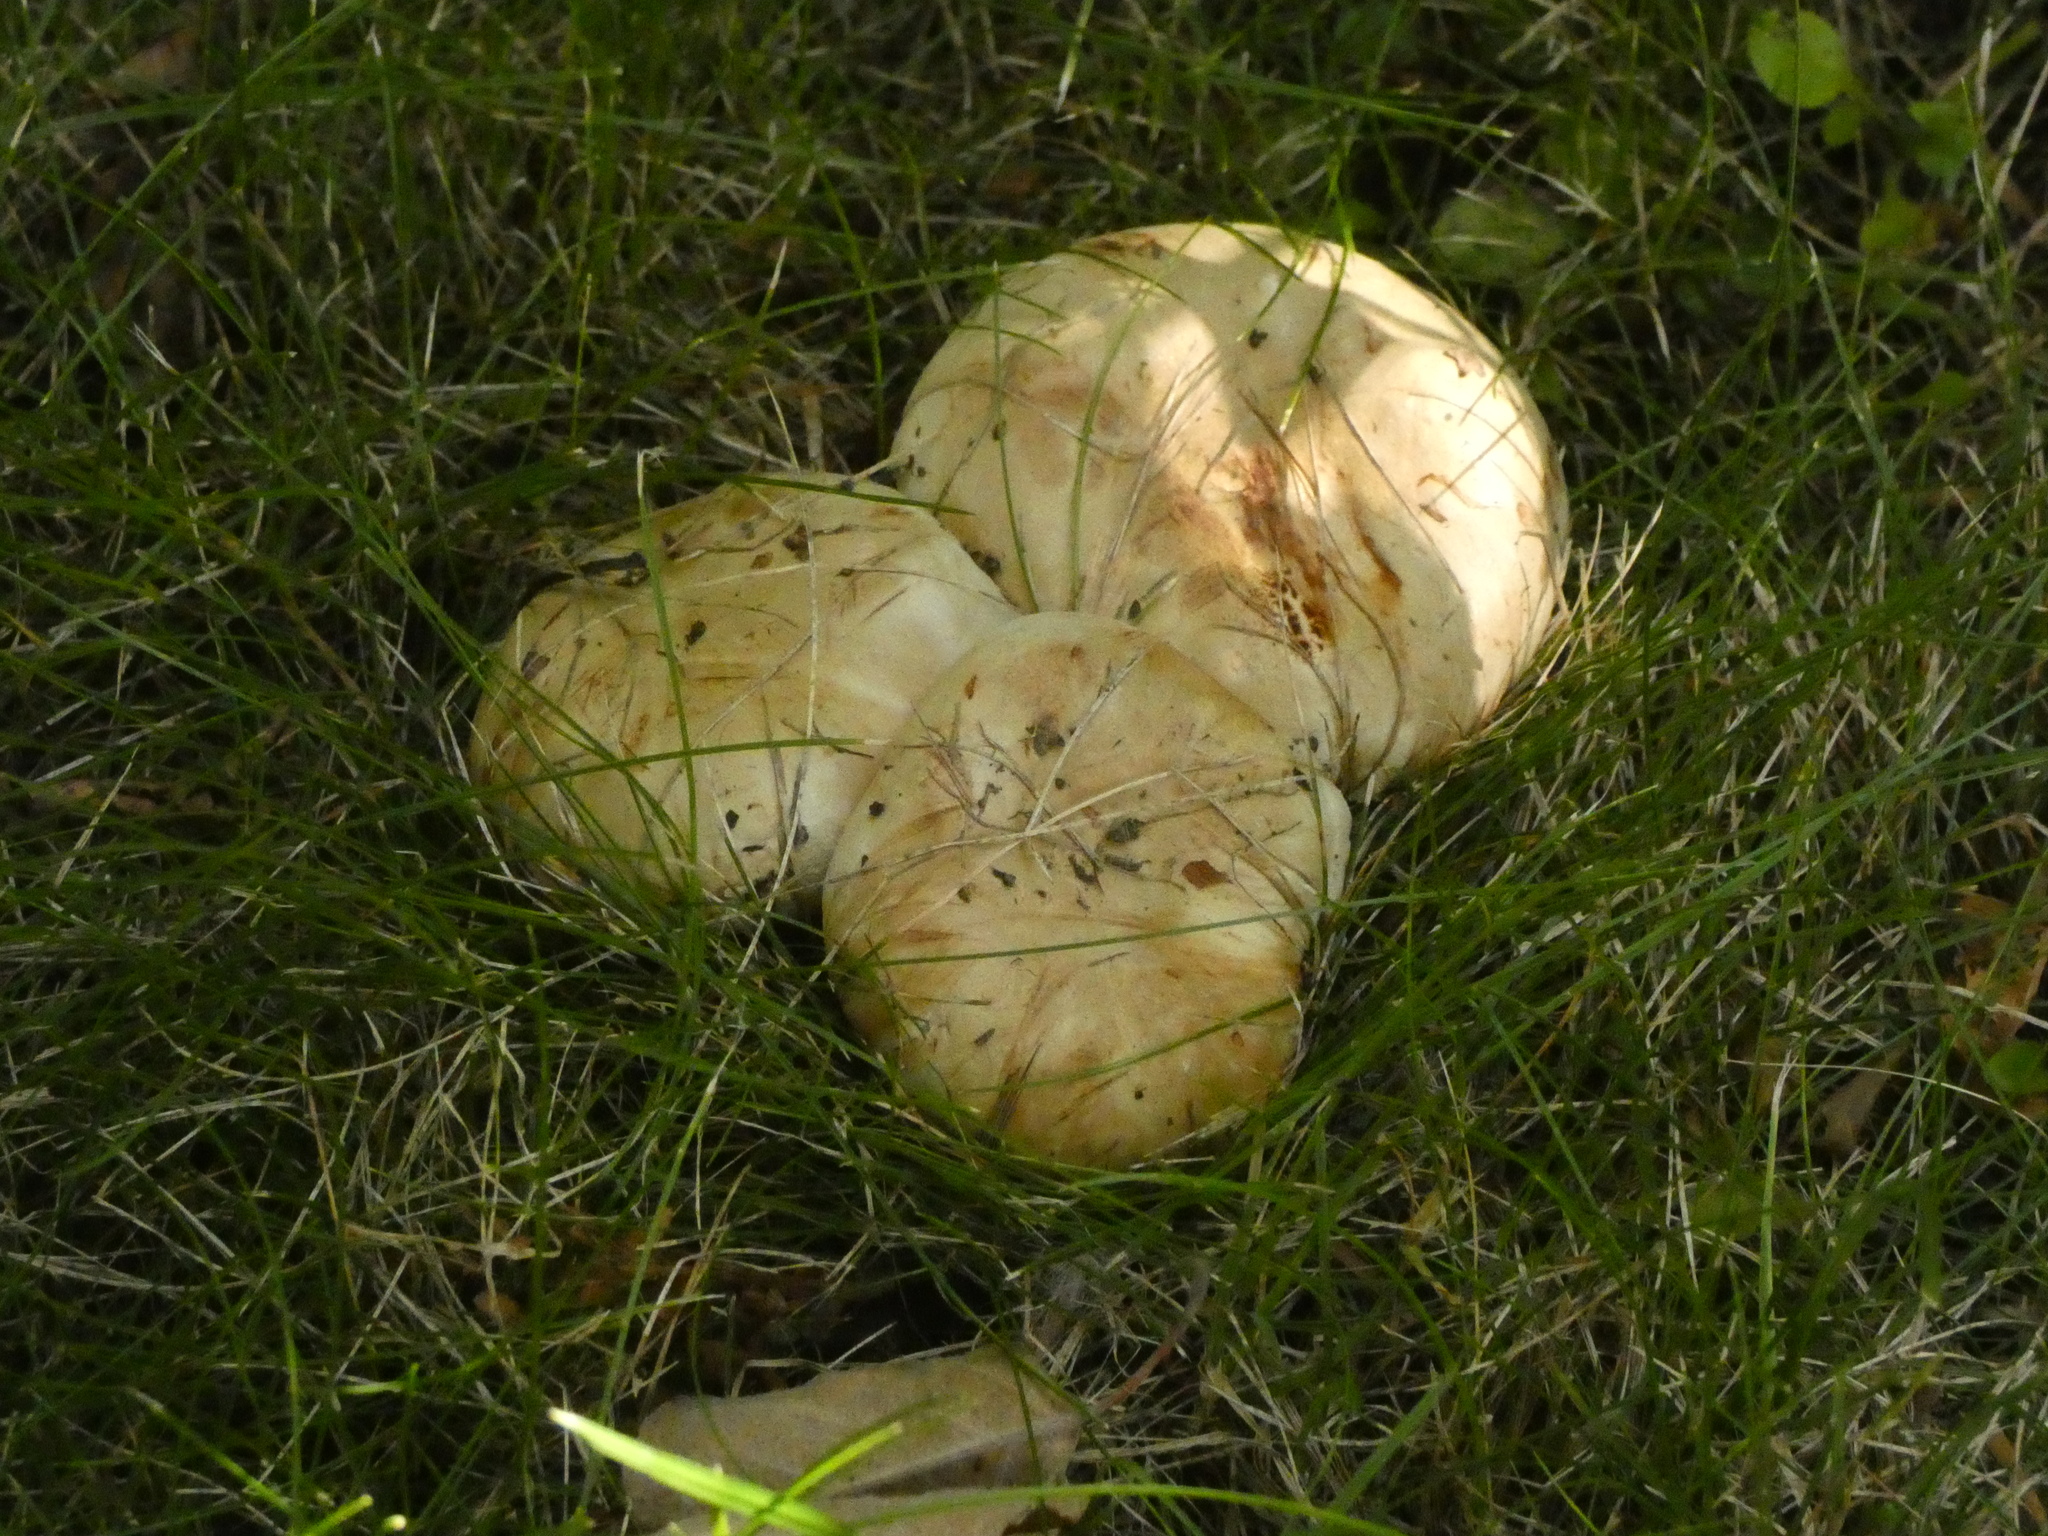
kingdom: Fungi
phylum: Basidiomycota
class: Agaricomycetes
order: Russulales
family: Russulaceae
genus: Lactarius
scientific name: Lactarius pubescens
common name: Bearded milkcap
